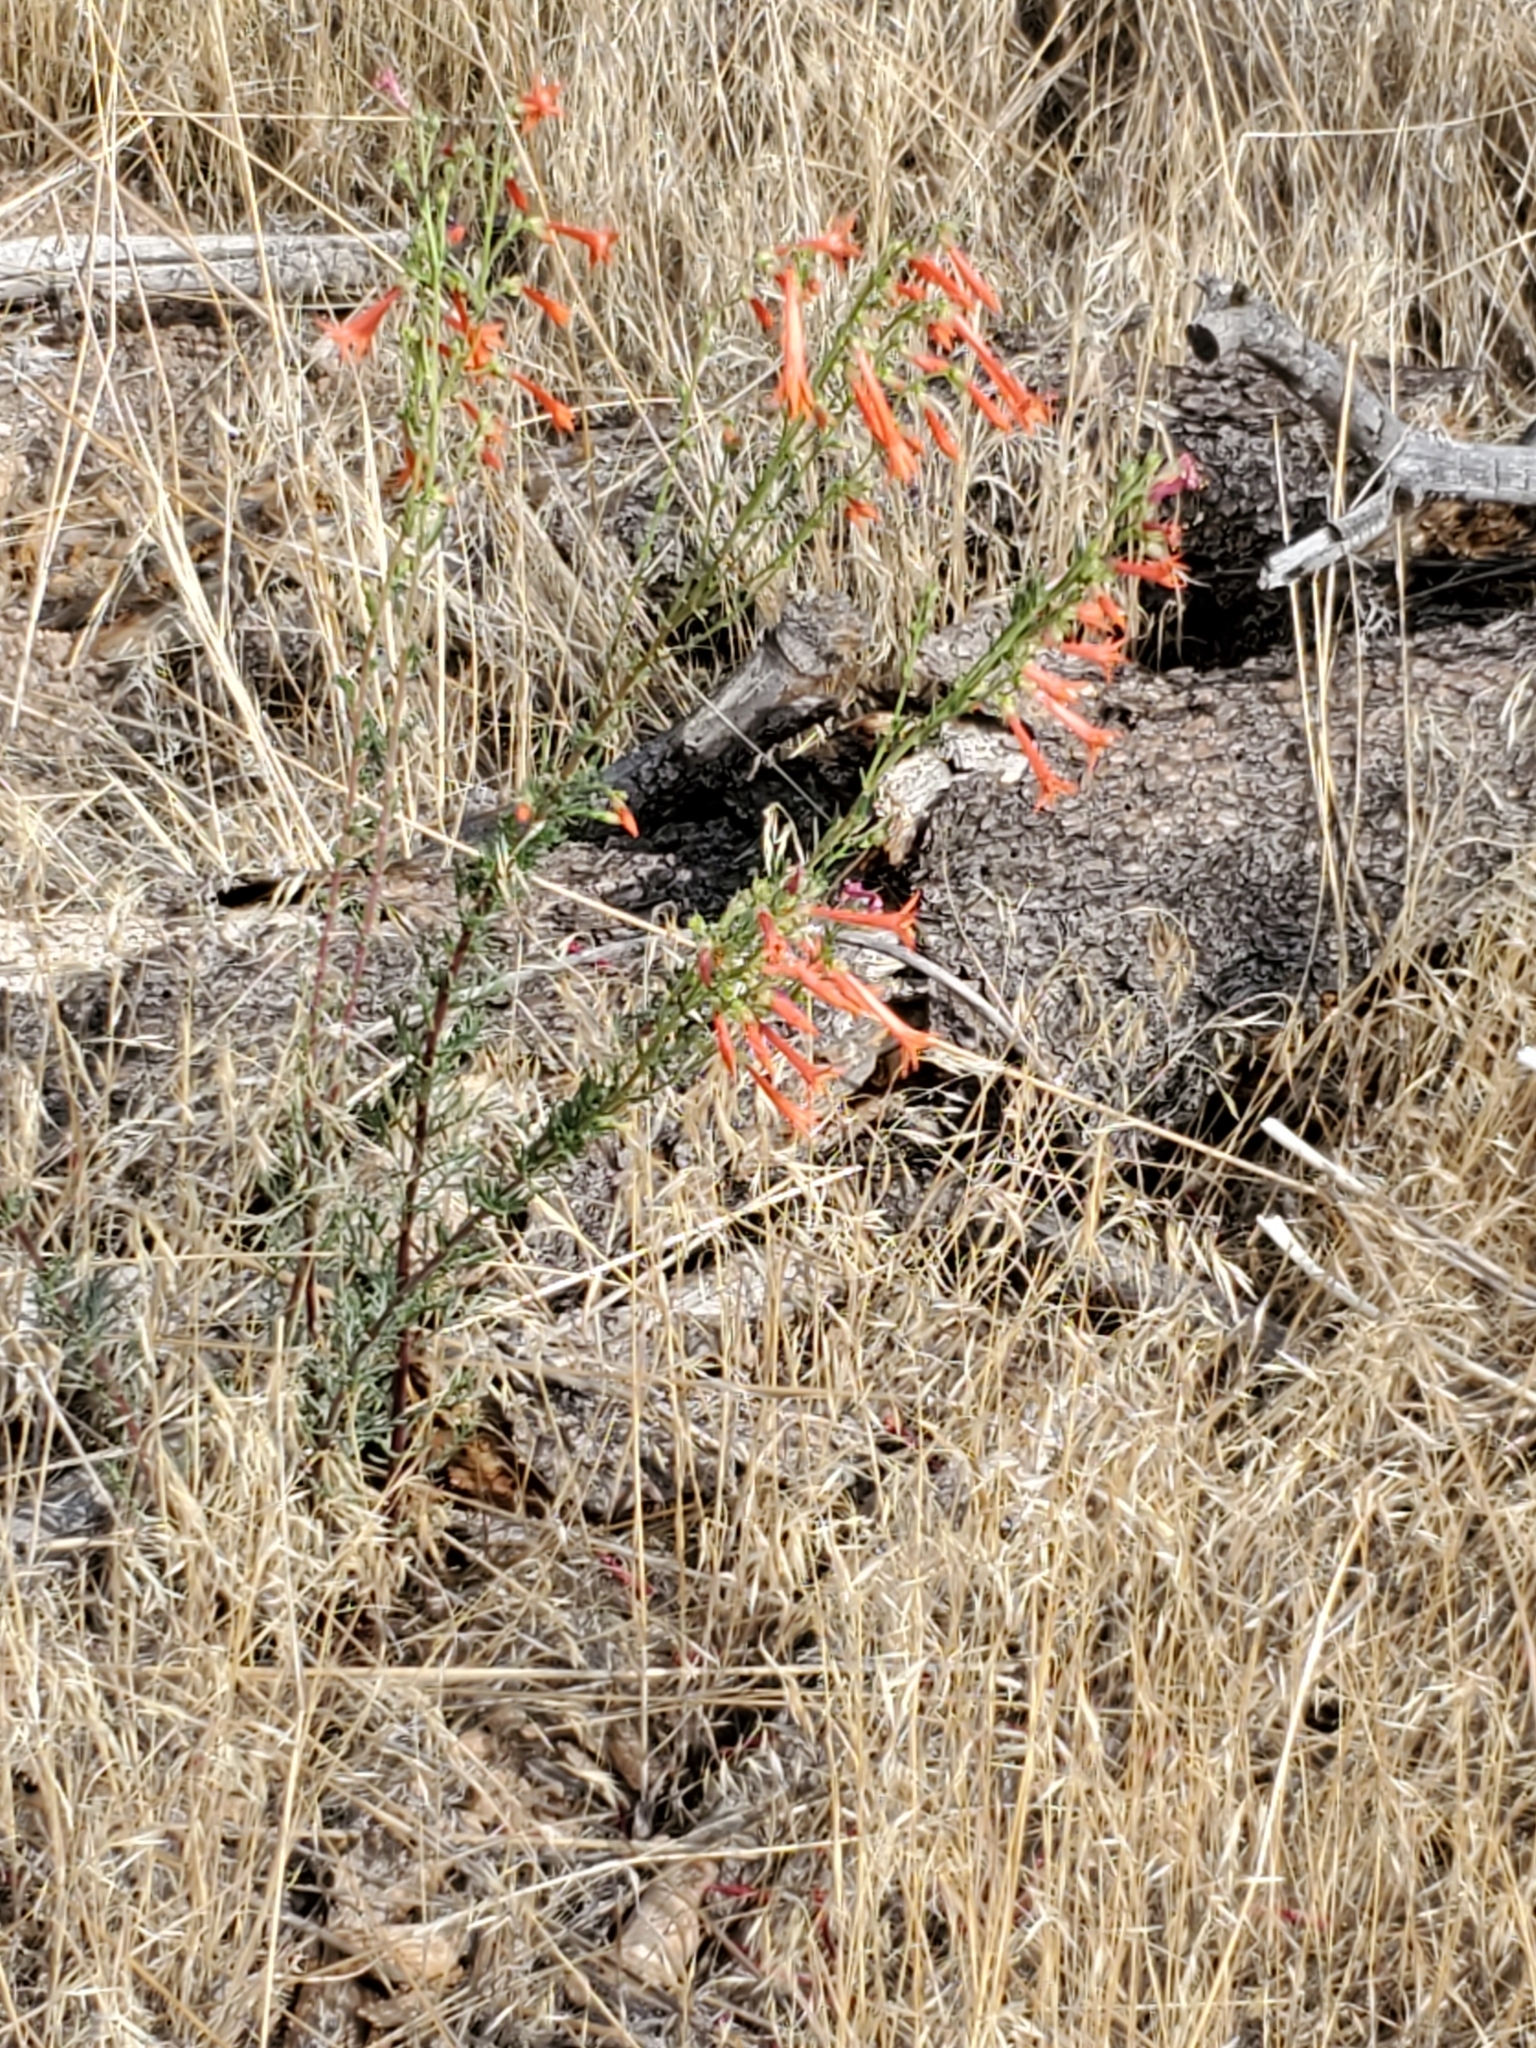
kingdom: Plantae
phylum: Tracheophyta
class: Magnoliopsida
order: Ericales
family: Polemoniaceae
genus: Ipomopsis
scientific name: Ipomopsis aggregata
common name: Scarlet gilia
